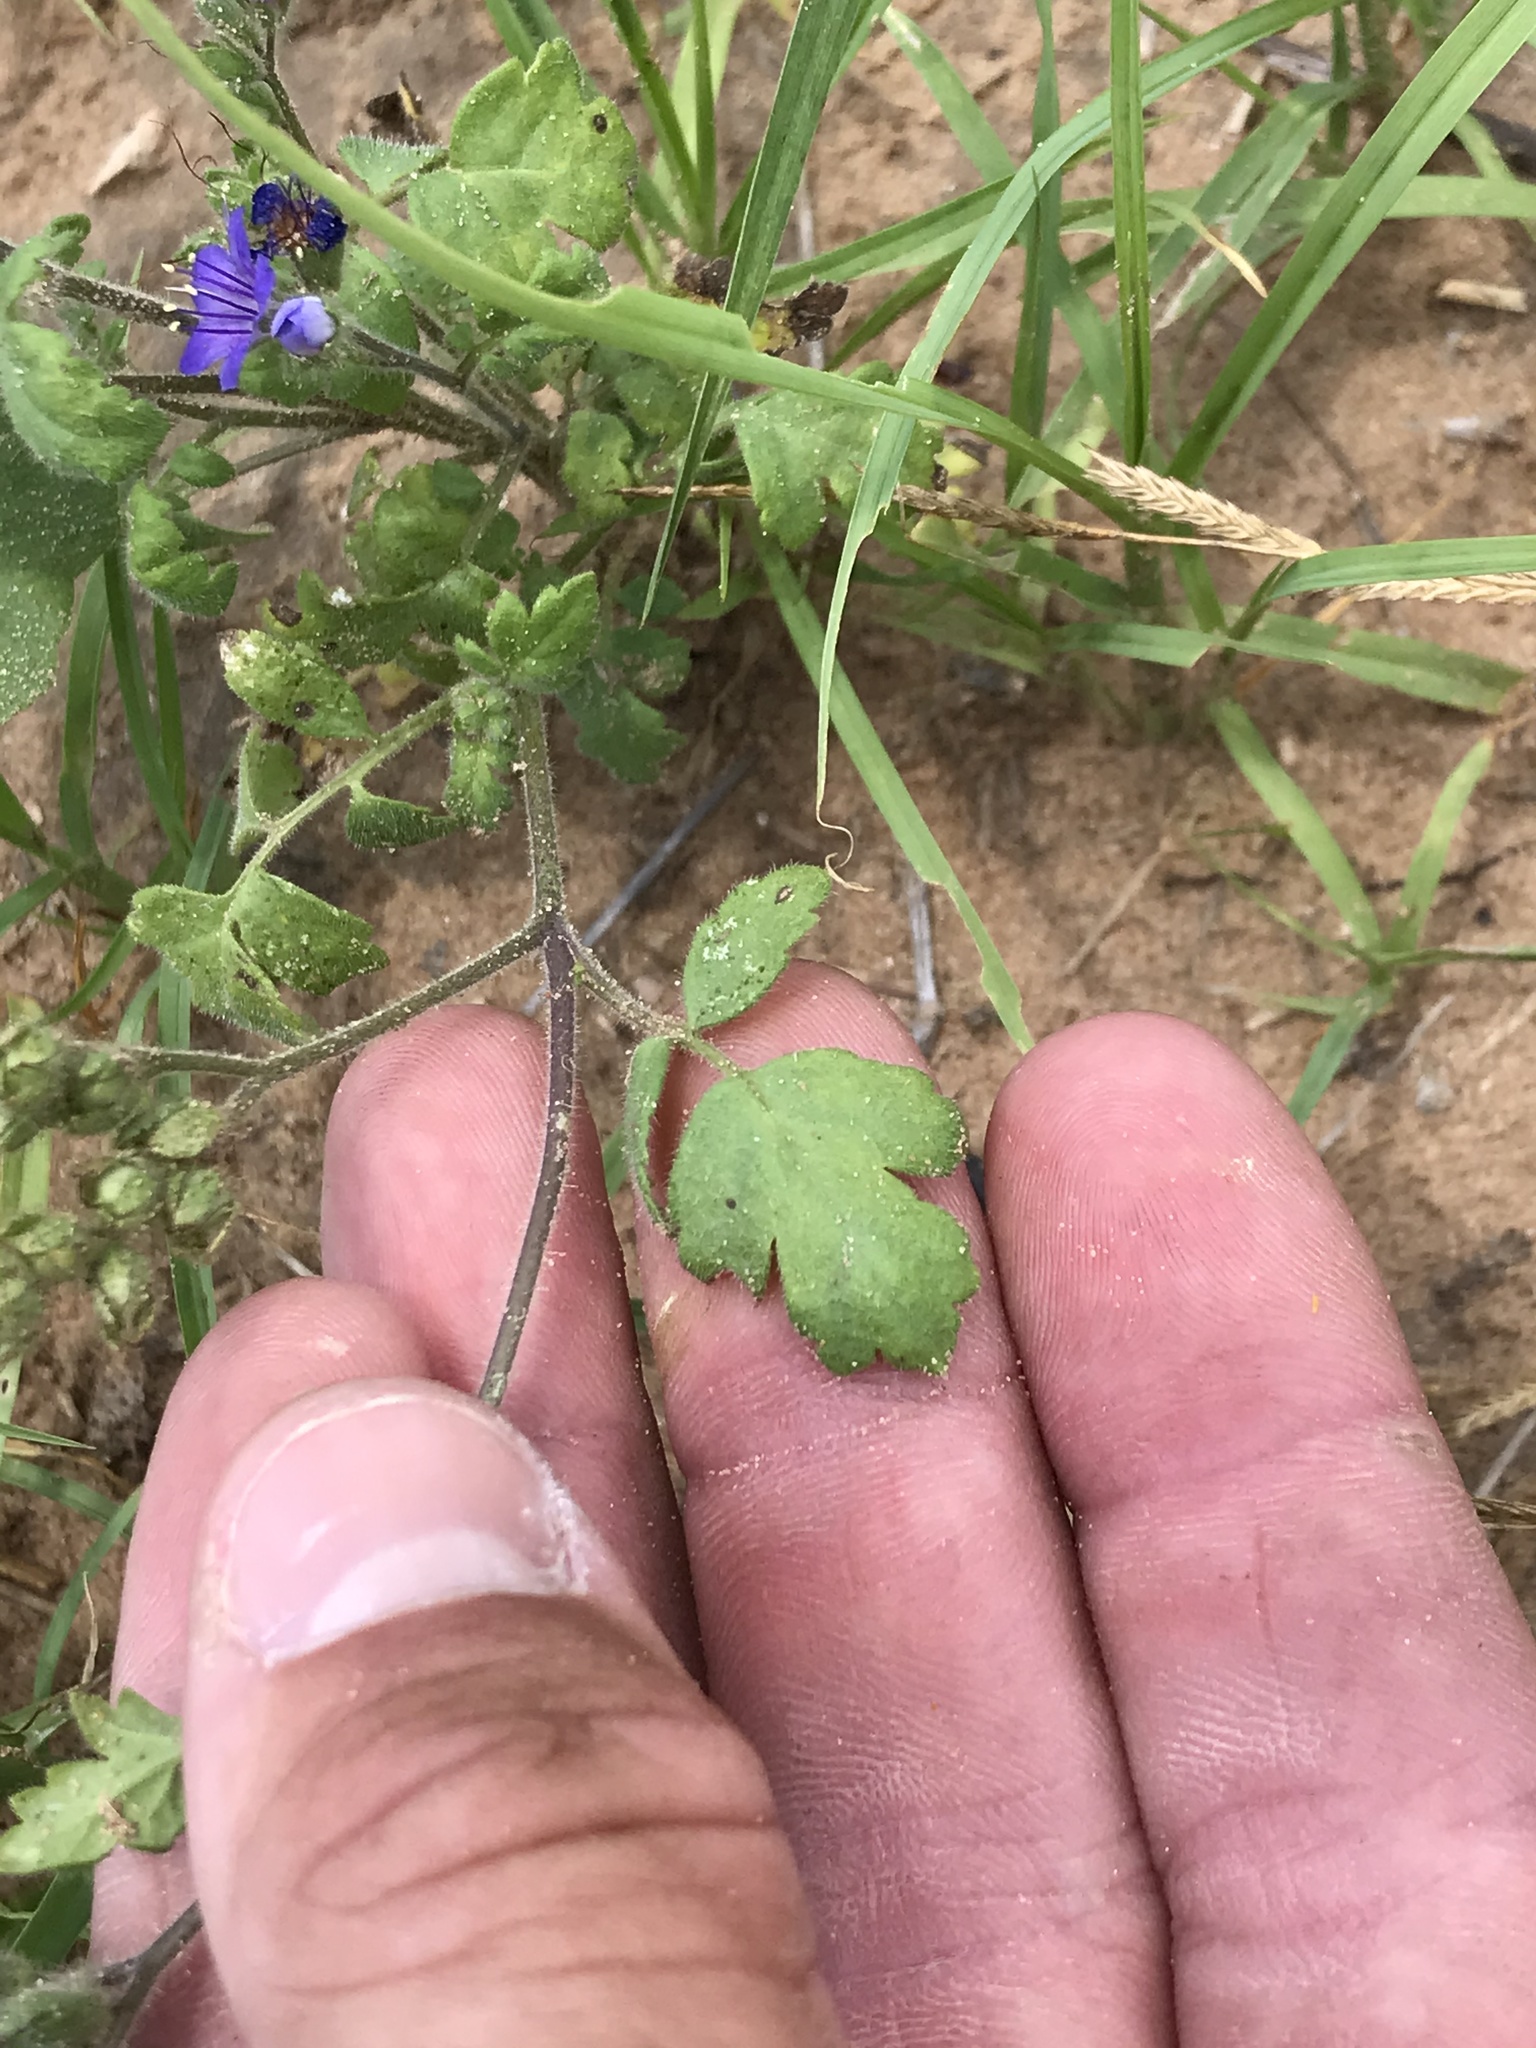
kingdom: Plantae
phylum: Tracheophyta
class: Magnoliopsida
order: Boraginales
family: Hydrophyllaceae
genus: Phacelia
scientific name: Phacelia congesta
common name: Blue curls
